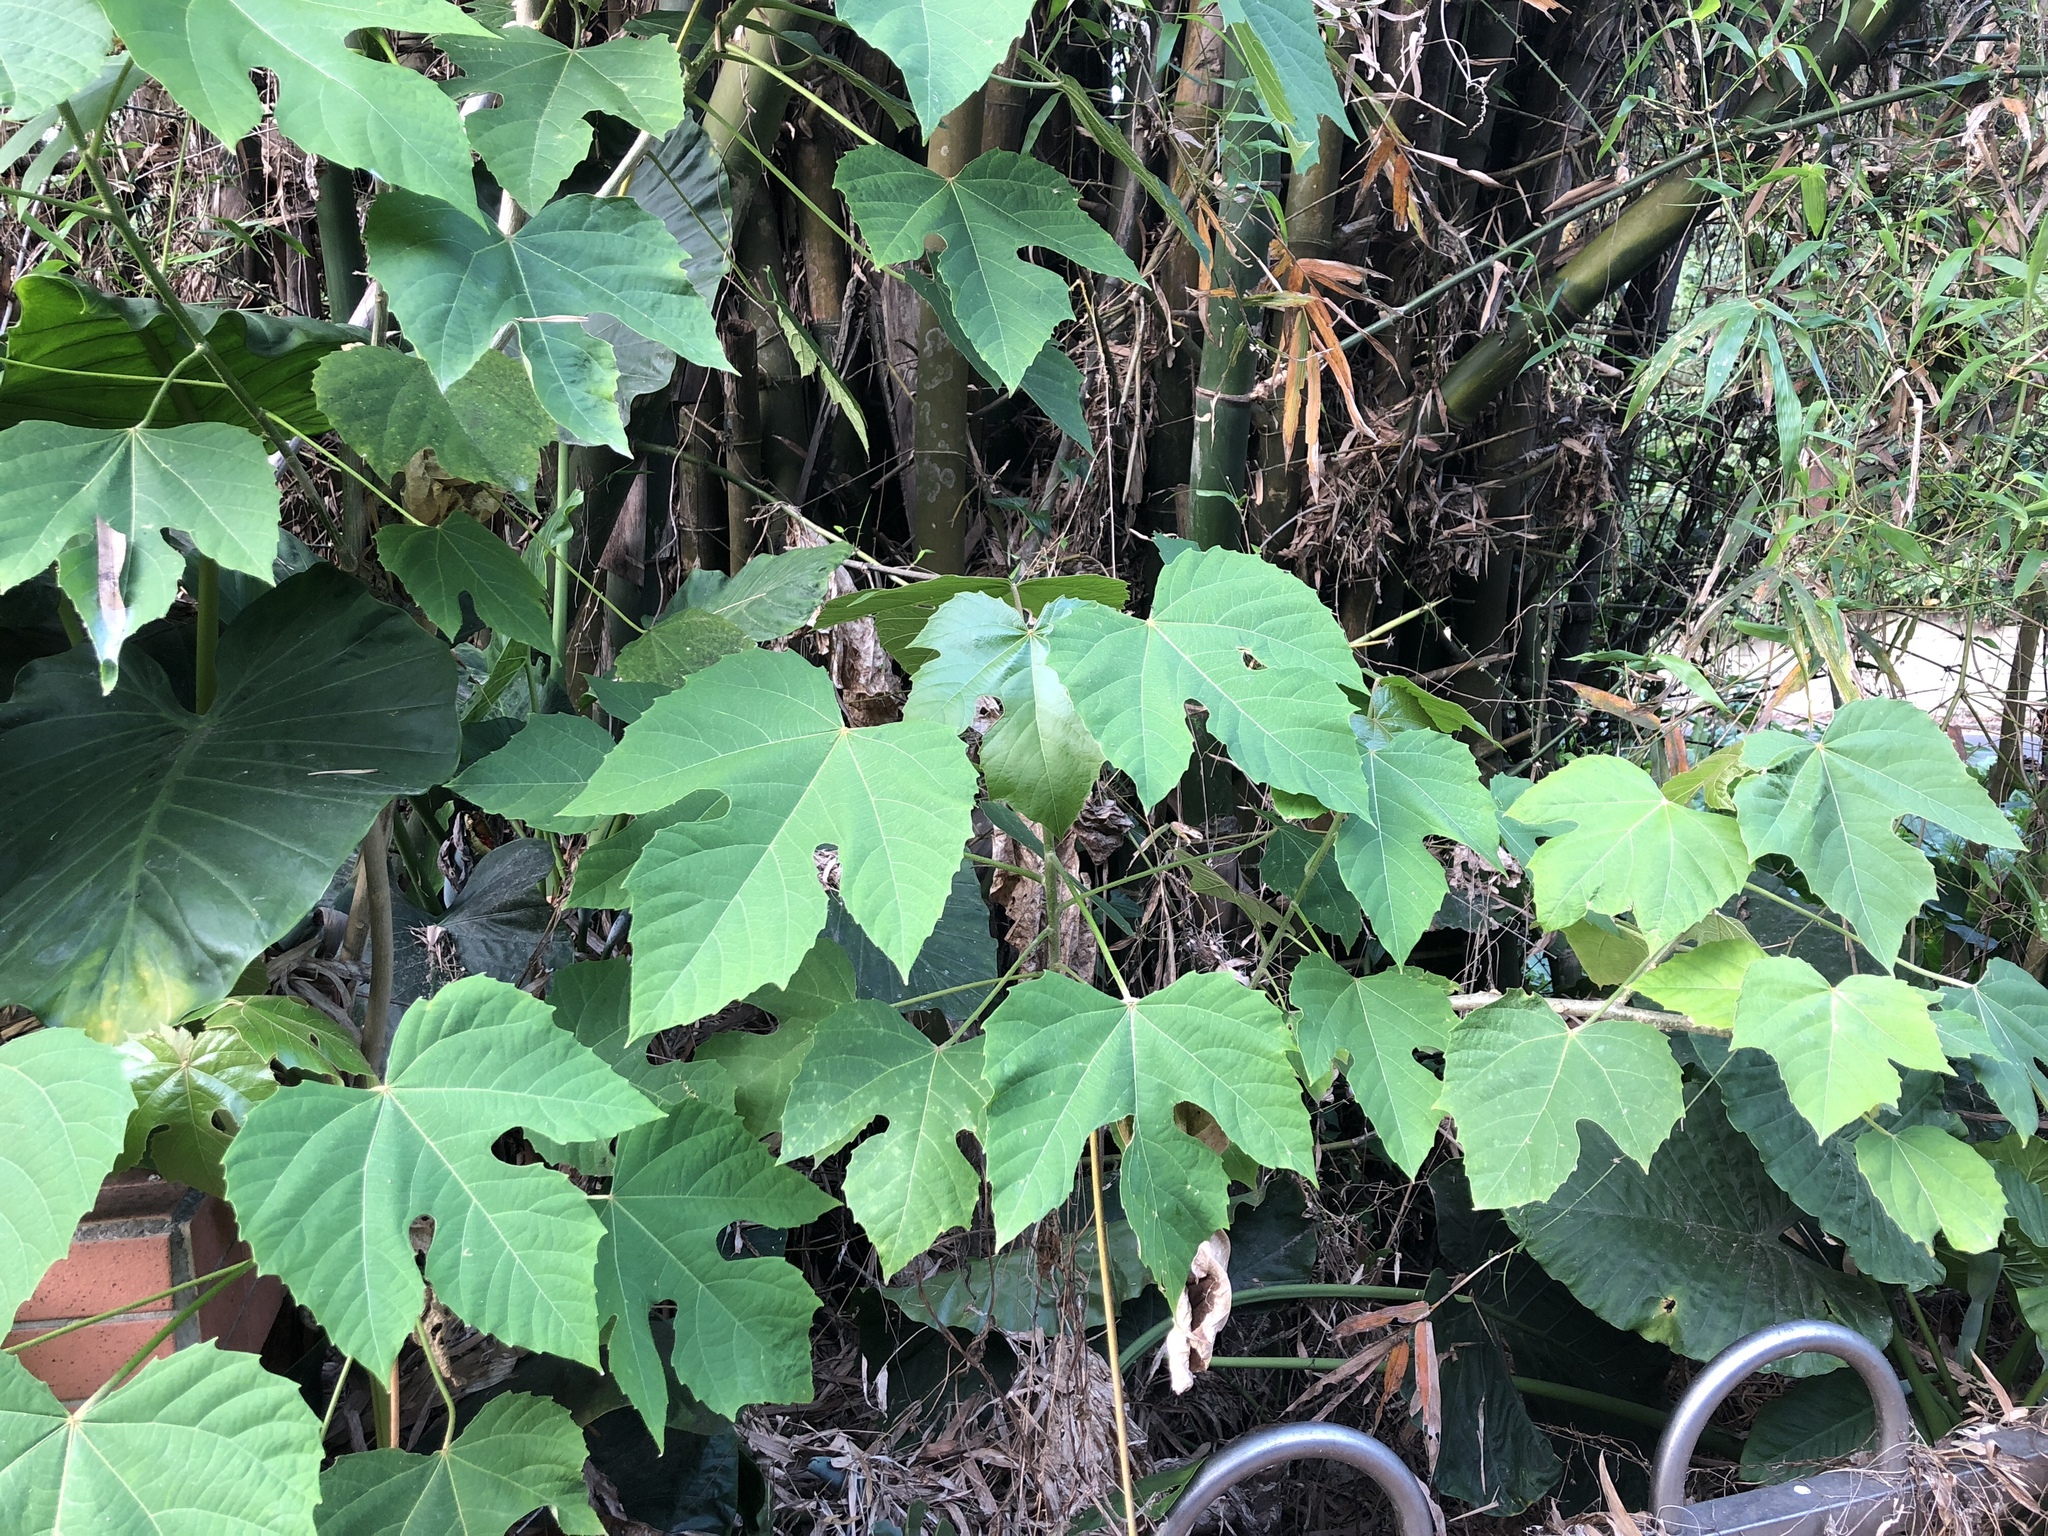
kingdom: Plantae
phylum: Tracheophyta
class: Magnoliopsida
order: Malpighiales
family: Euphorbiaceae
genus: Melanolepis
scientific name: Melanolepis multiglandulosa
